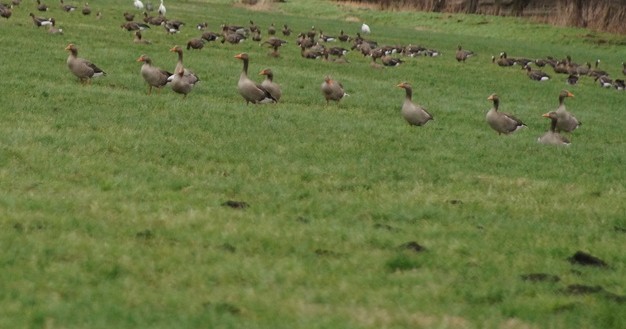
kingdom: Animalia
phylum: Chordata
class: Aves
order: Anseriformes
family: Anatidae
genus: Anser
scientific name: Anser anser
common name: Greylag goose
